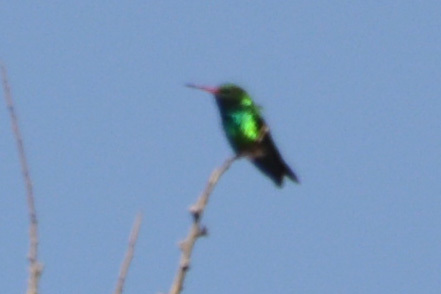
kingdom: Animalia
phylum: Chordata
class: Aves
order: Apodiformes
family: Trochilidae
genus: Chlorostilbon
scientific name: Chlorostilbon lucidus
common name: Glittering-bellied emerald
